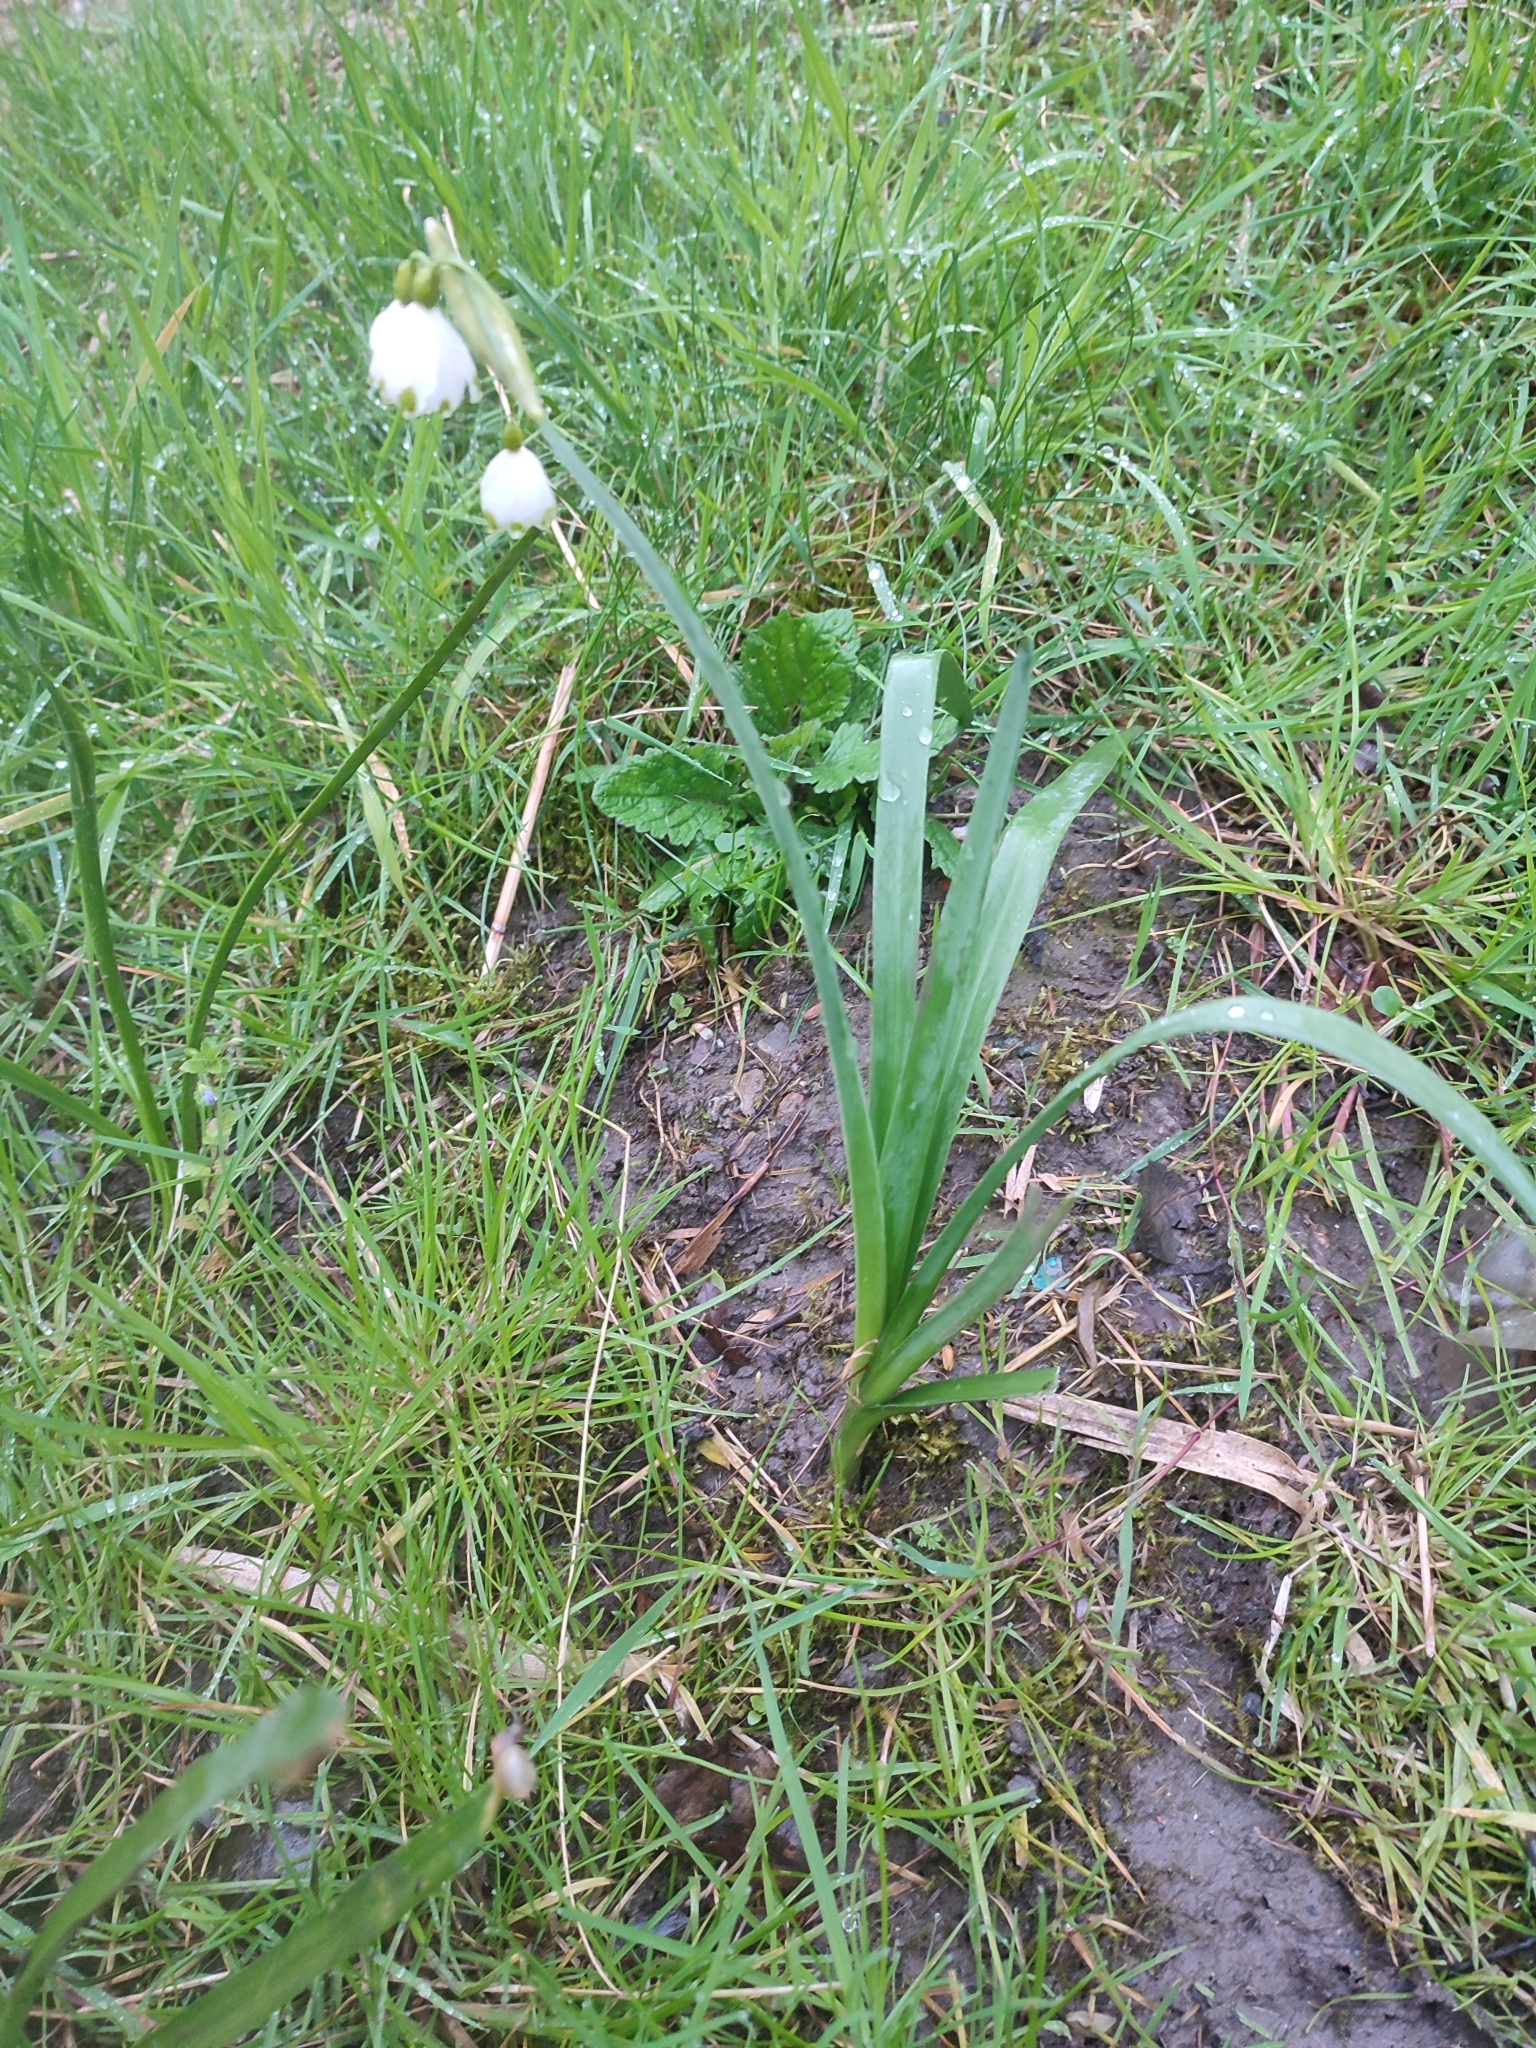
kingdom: Plantae
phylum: Tracheophyta
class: Liliopsida
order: Asparagales
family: Amaryllidaceae
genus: Leucojum
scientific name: Leucojum aestivum
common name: Summer snowflake
